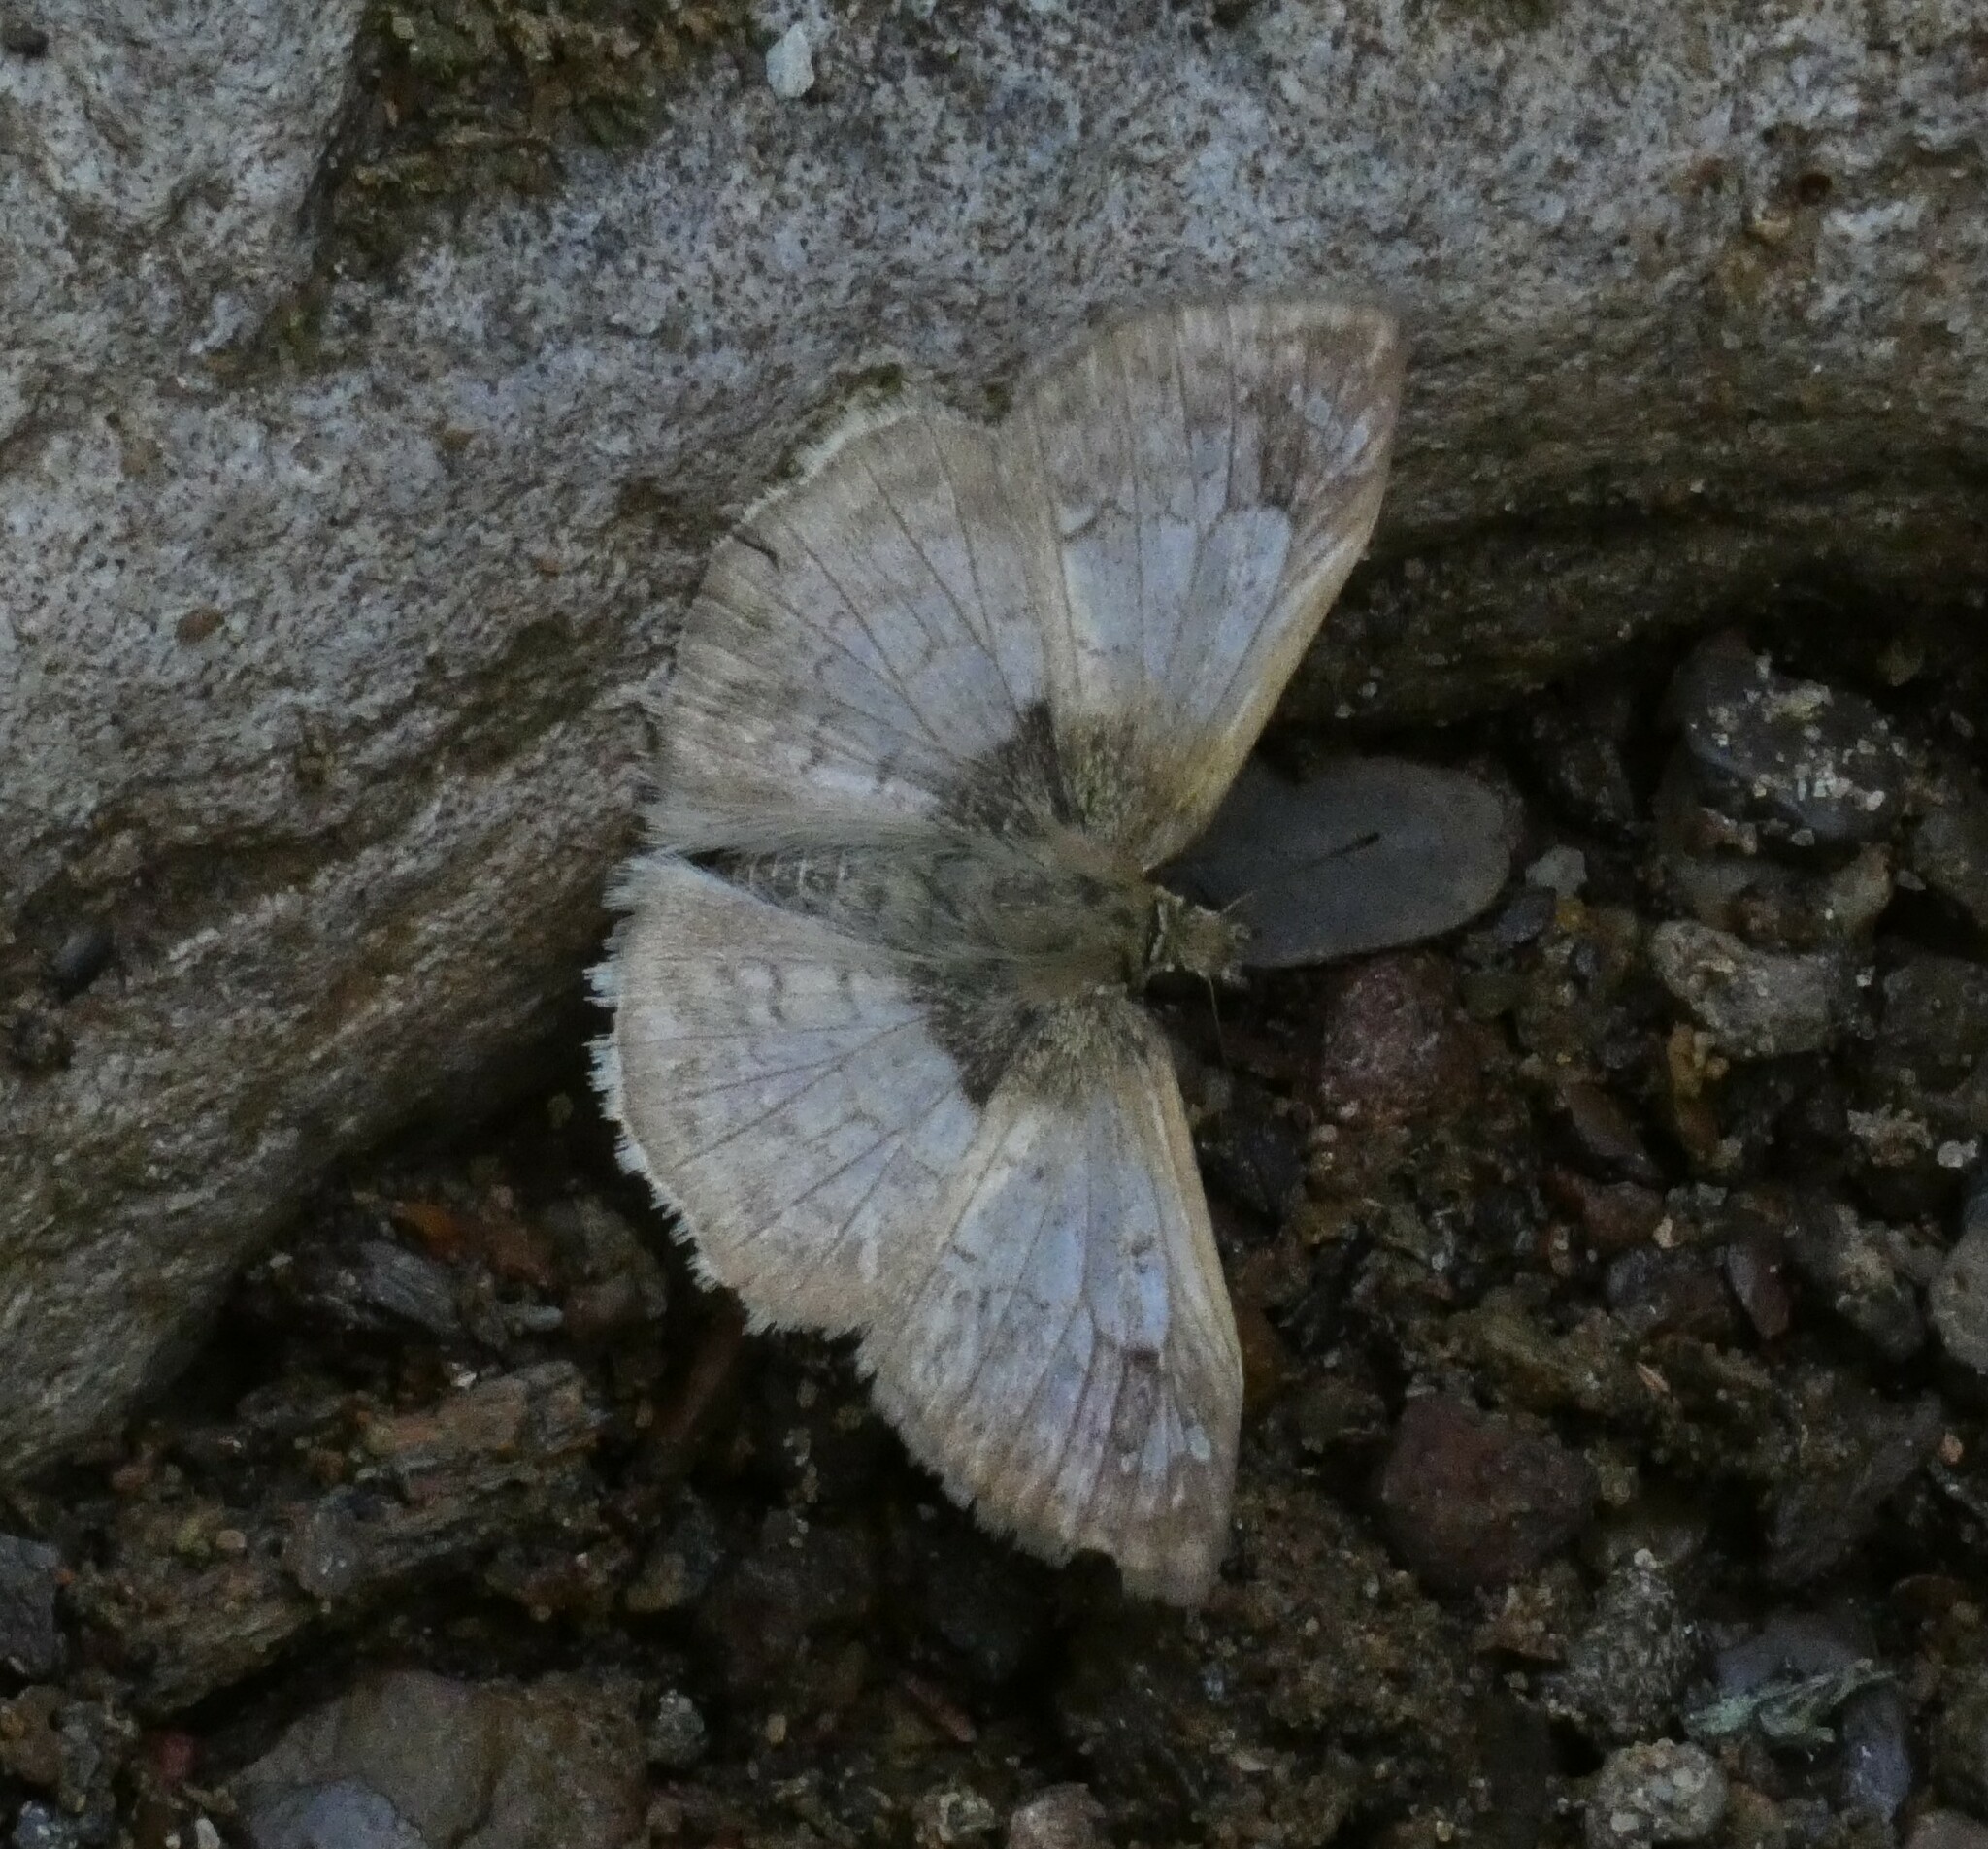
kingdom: Animalia
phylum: Arthropoda
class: Insecta
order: Lepidoptera
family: Hesperiidae
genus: Canesia
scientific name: Canesia
